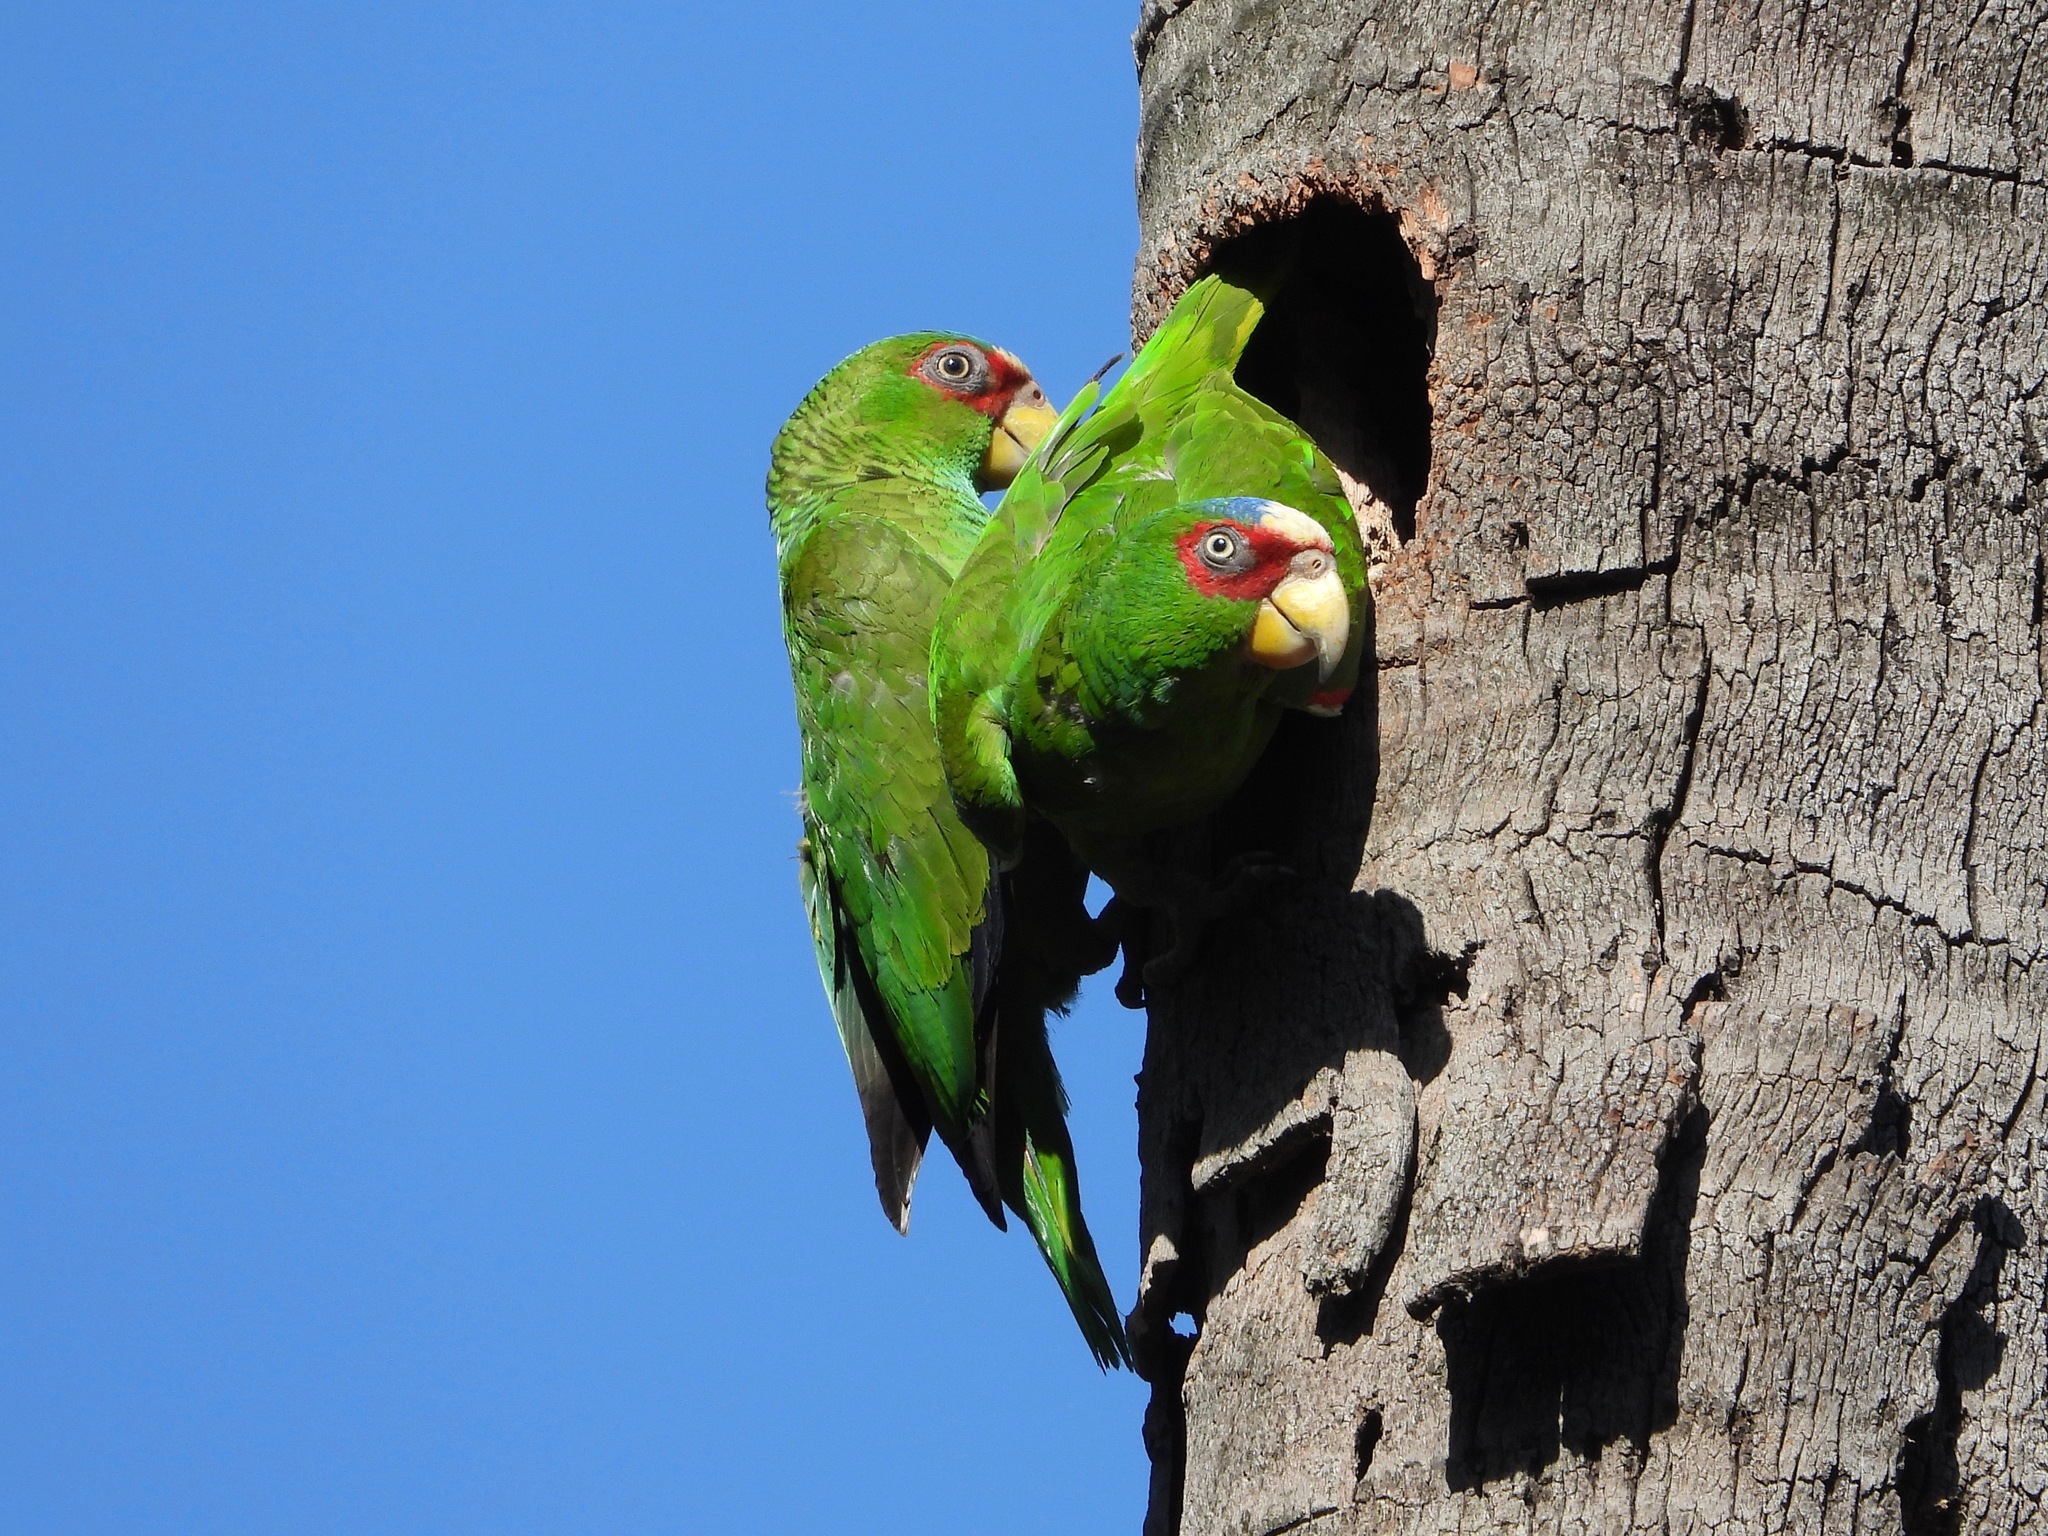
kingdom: Animalia
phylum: Chordata
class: Aves
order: Psittaciformes
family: Psittacidae
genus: Amazona
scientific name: Amazona albifrons
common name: White-fronted amazon
